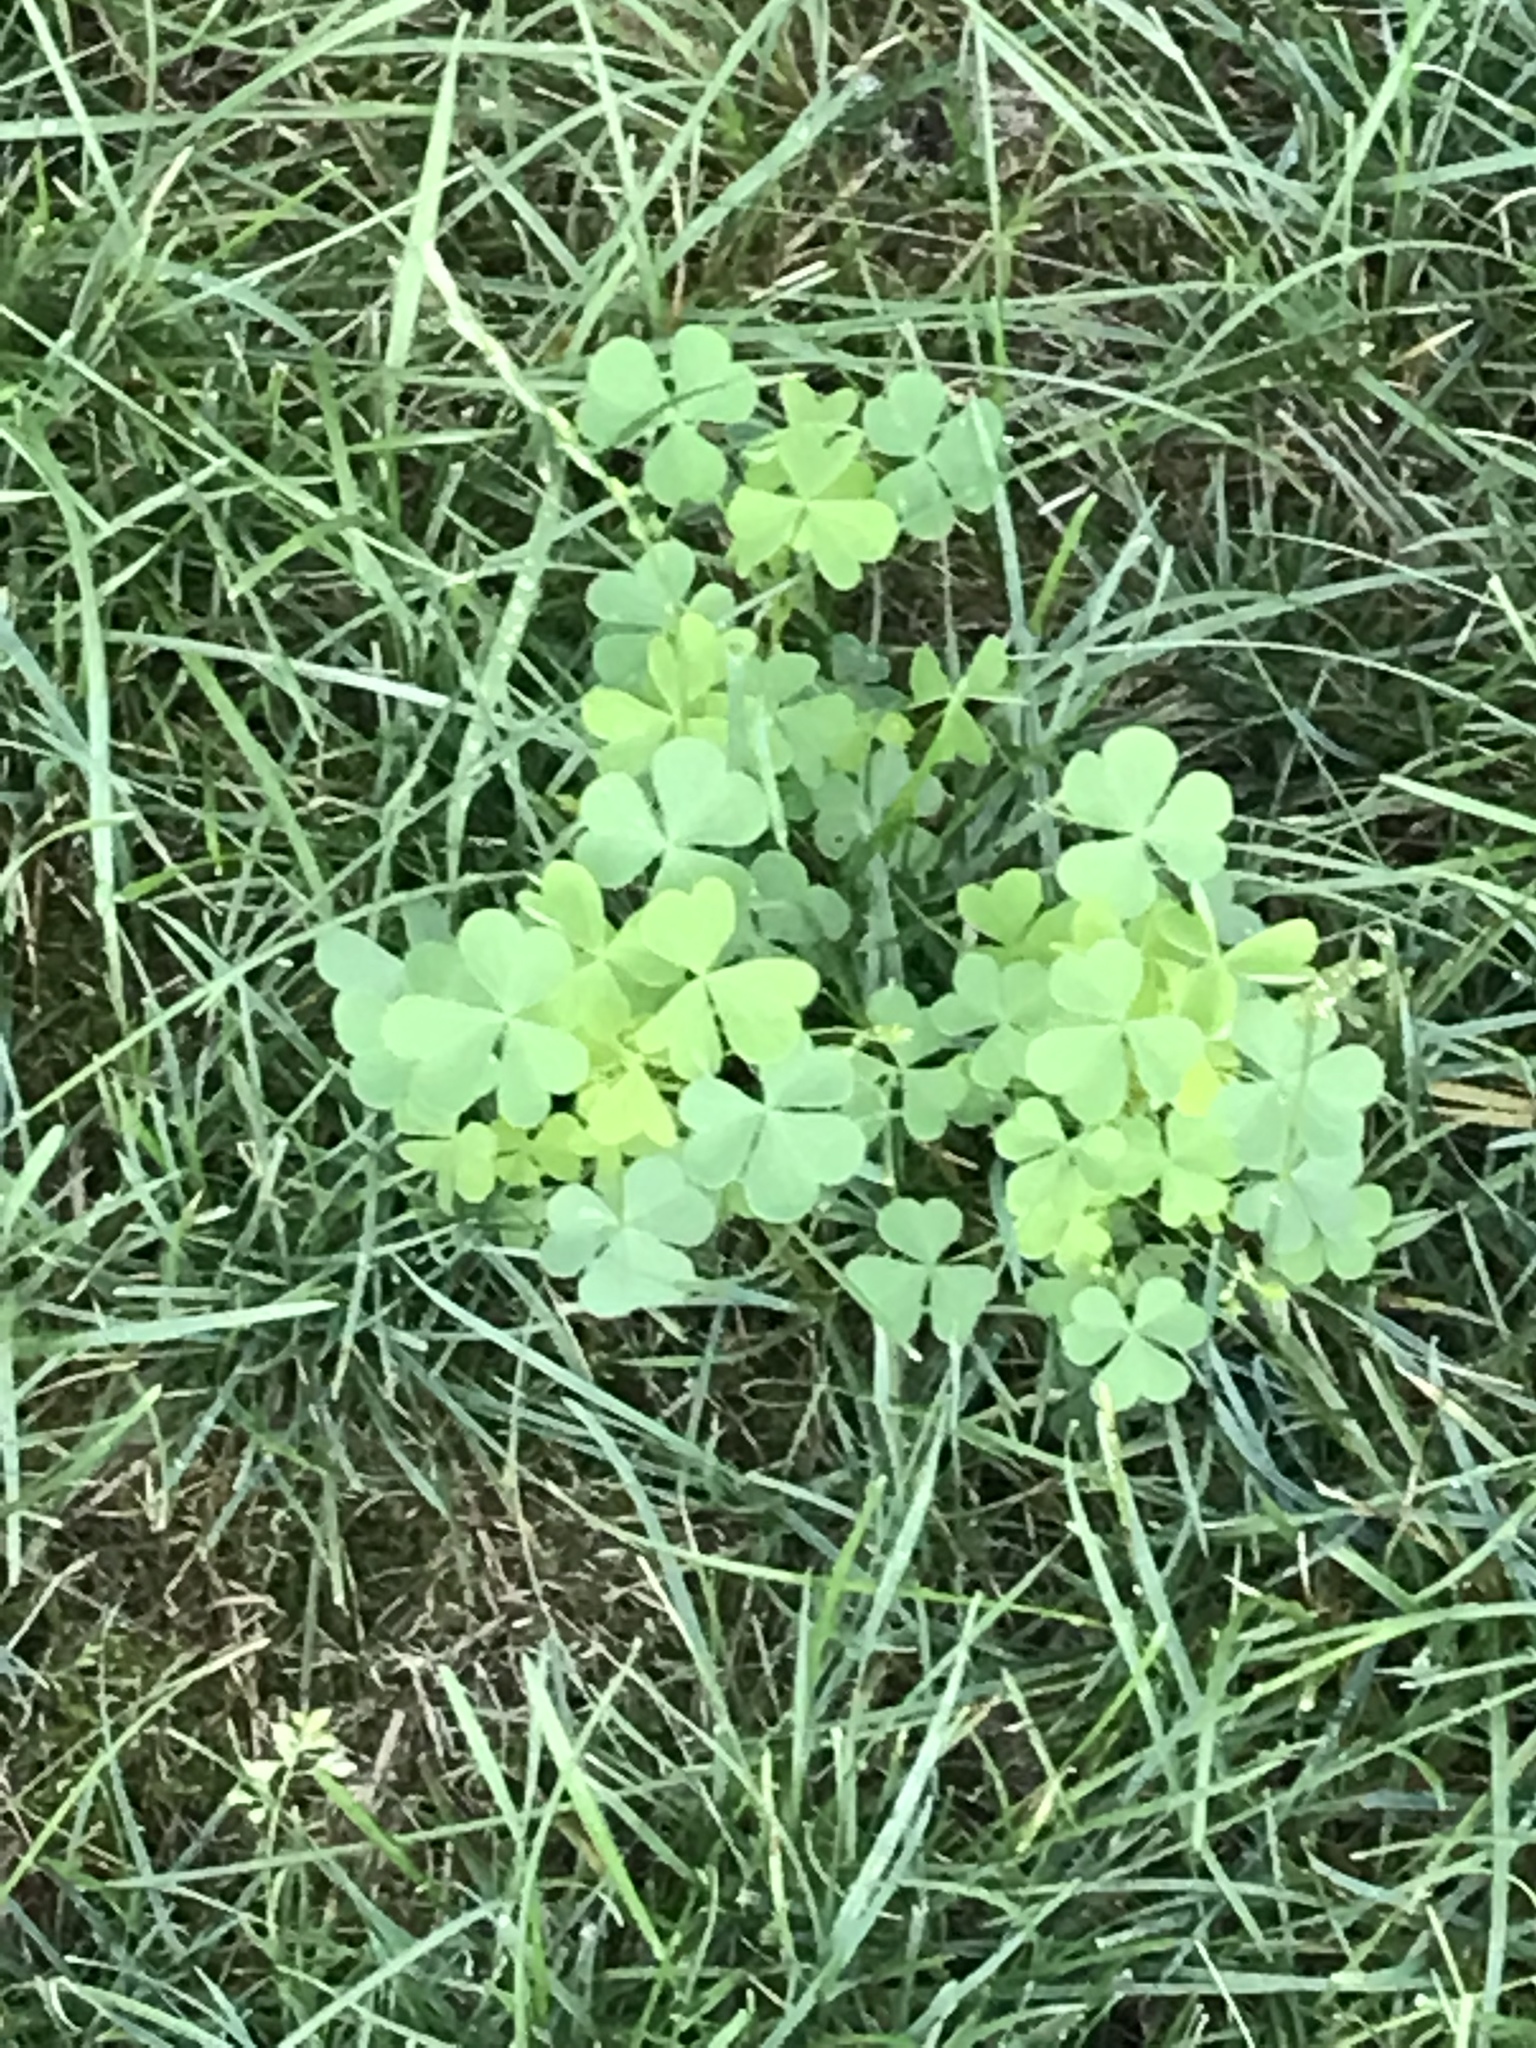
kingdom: Plantae
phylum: Tracheophyta
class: Magnoliopsida
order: Oxalidales
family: Oxalidaceae
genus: Oxalis
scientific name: Oxalis
